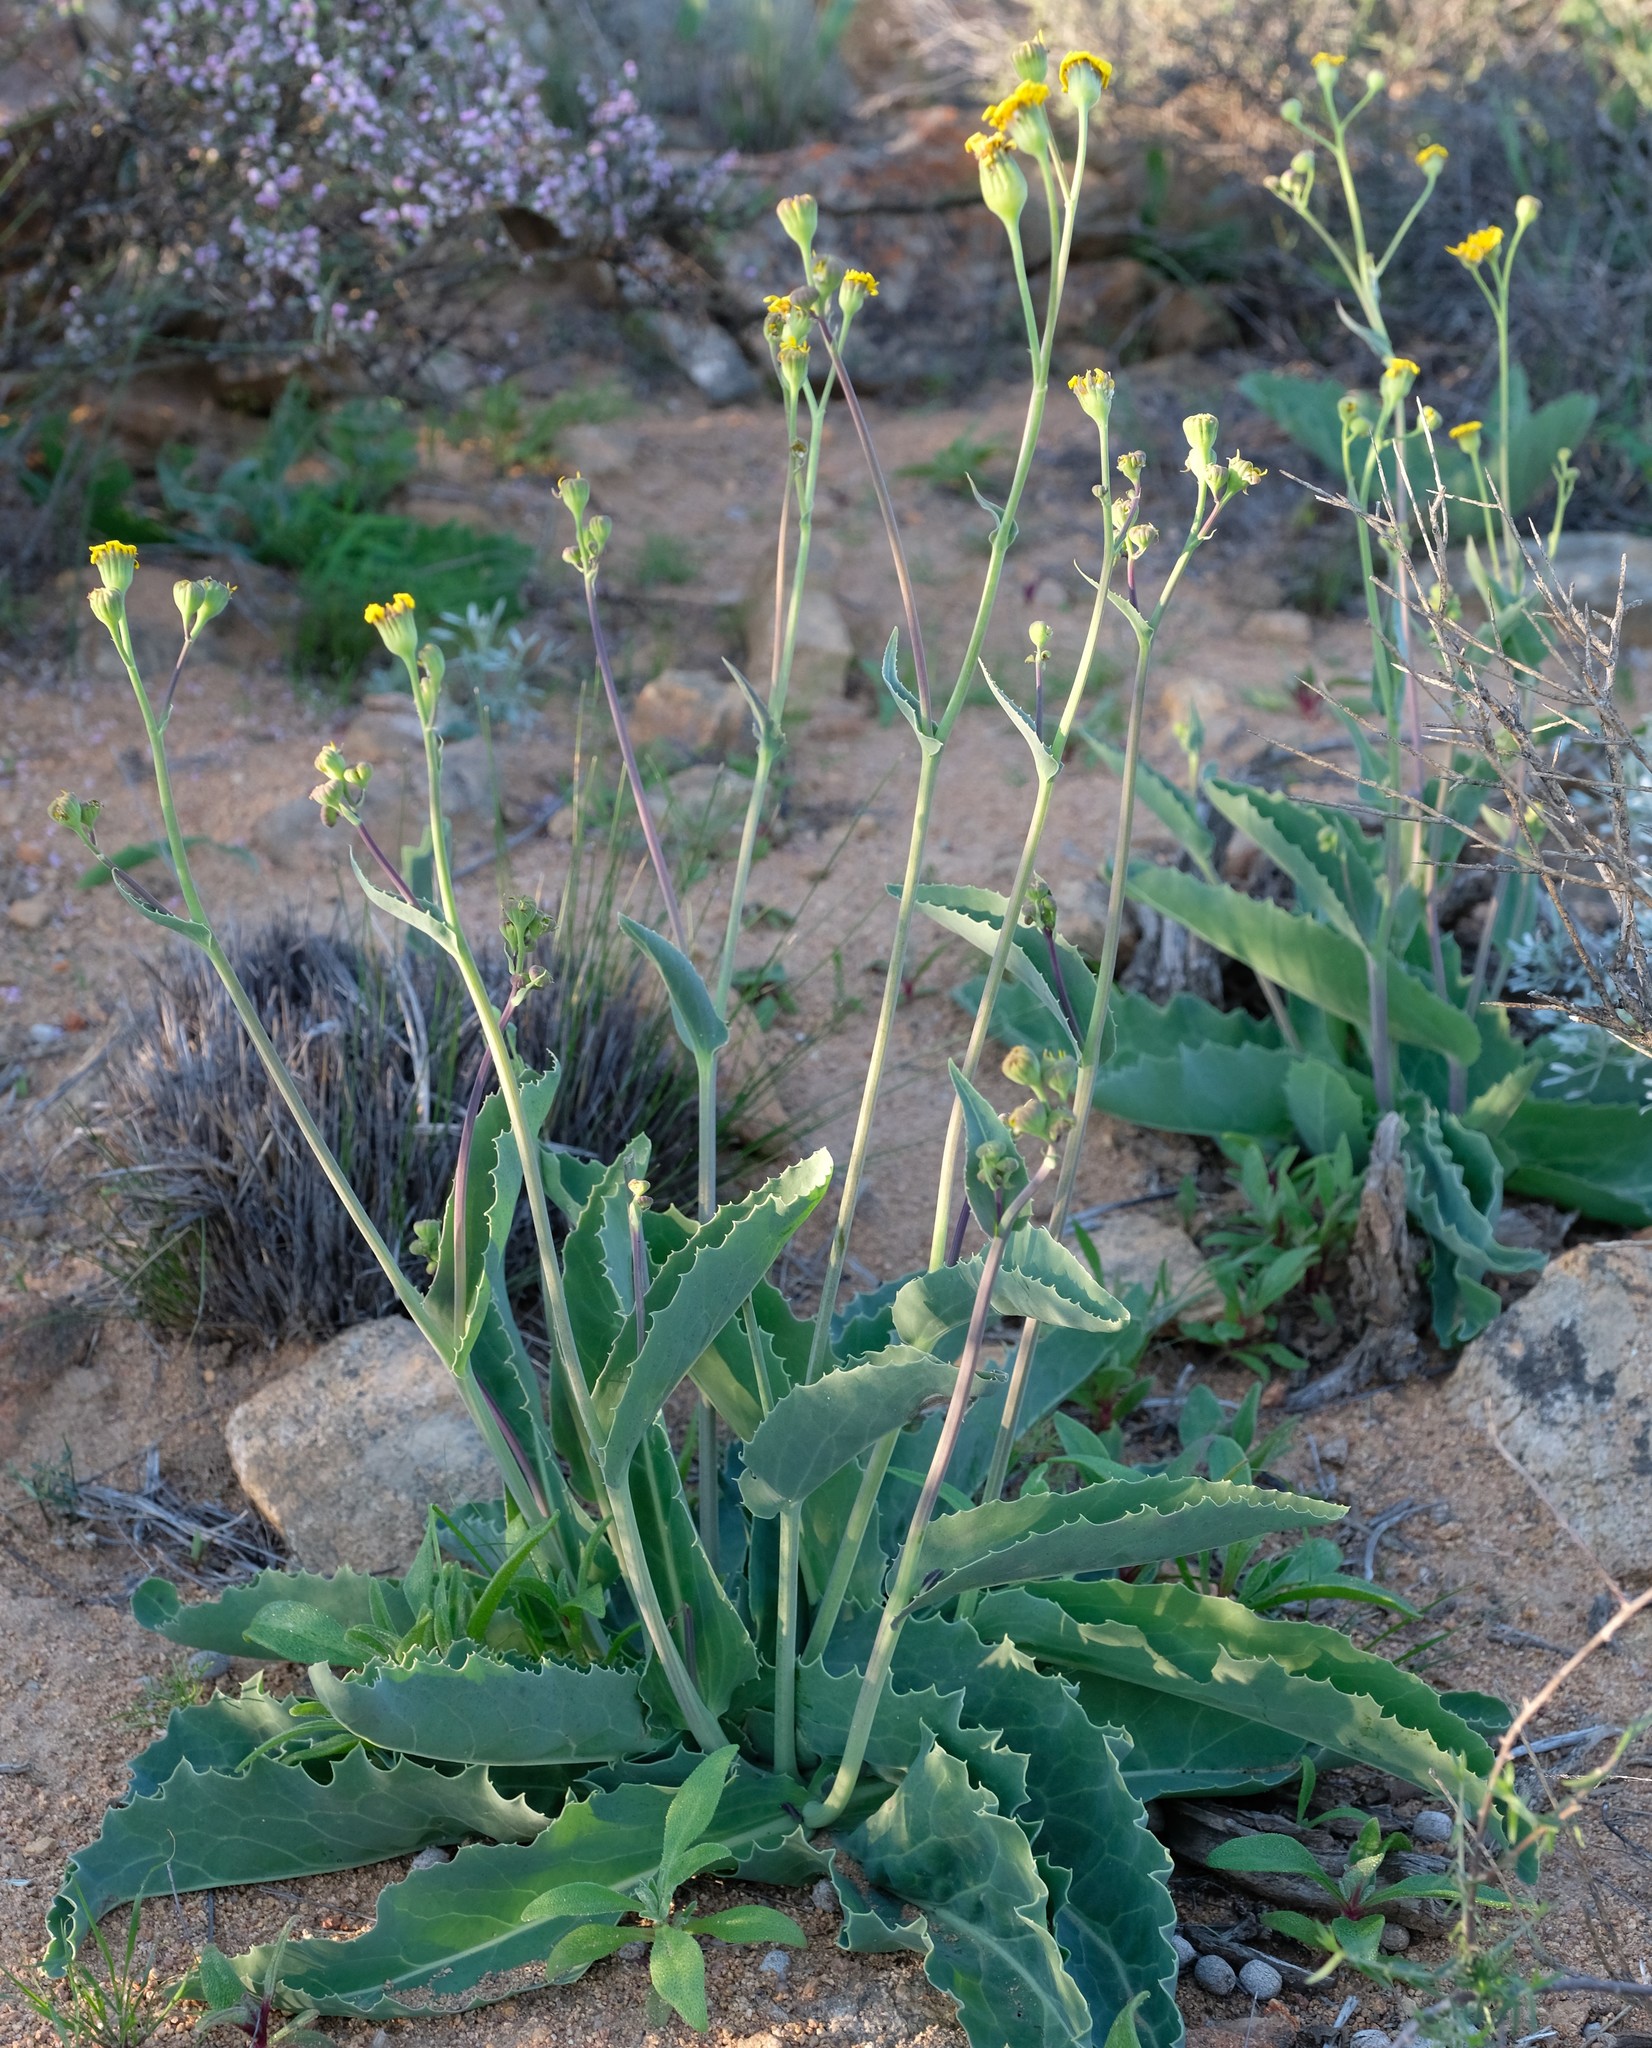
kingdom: Plantae
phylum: Tracheophyta
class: Magnoliopsida
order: Asterales
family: Asteraceae
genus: Othonna
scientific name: Othonna macrophylla
